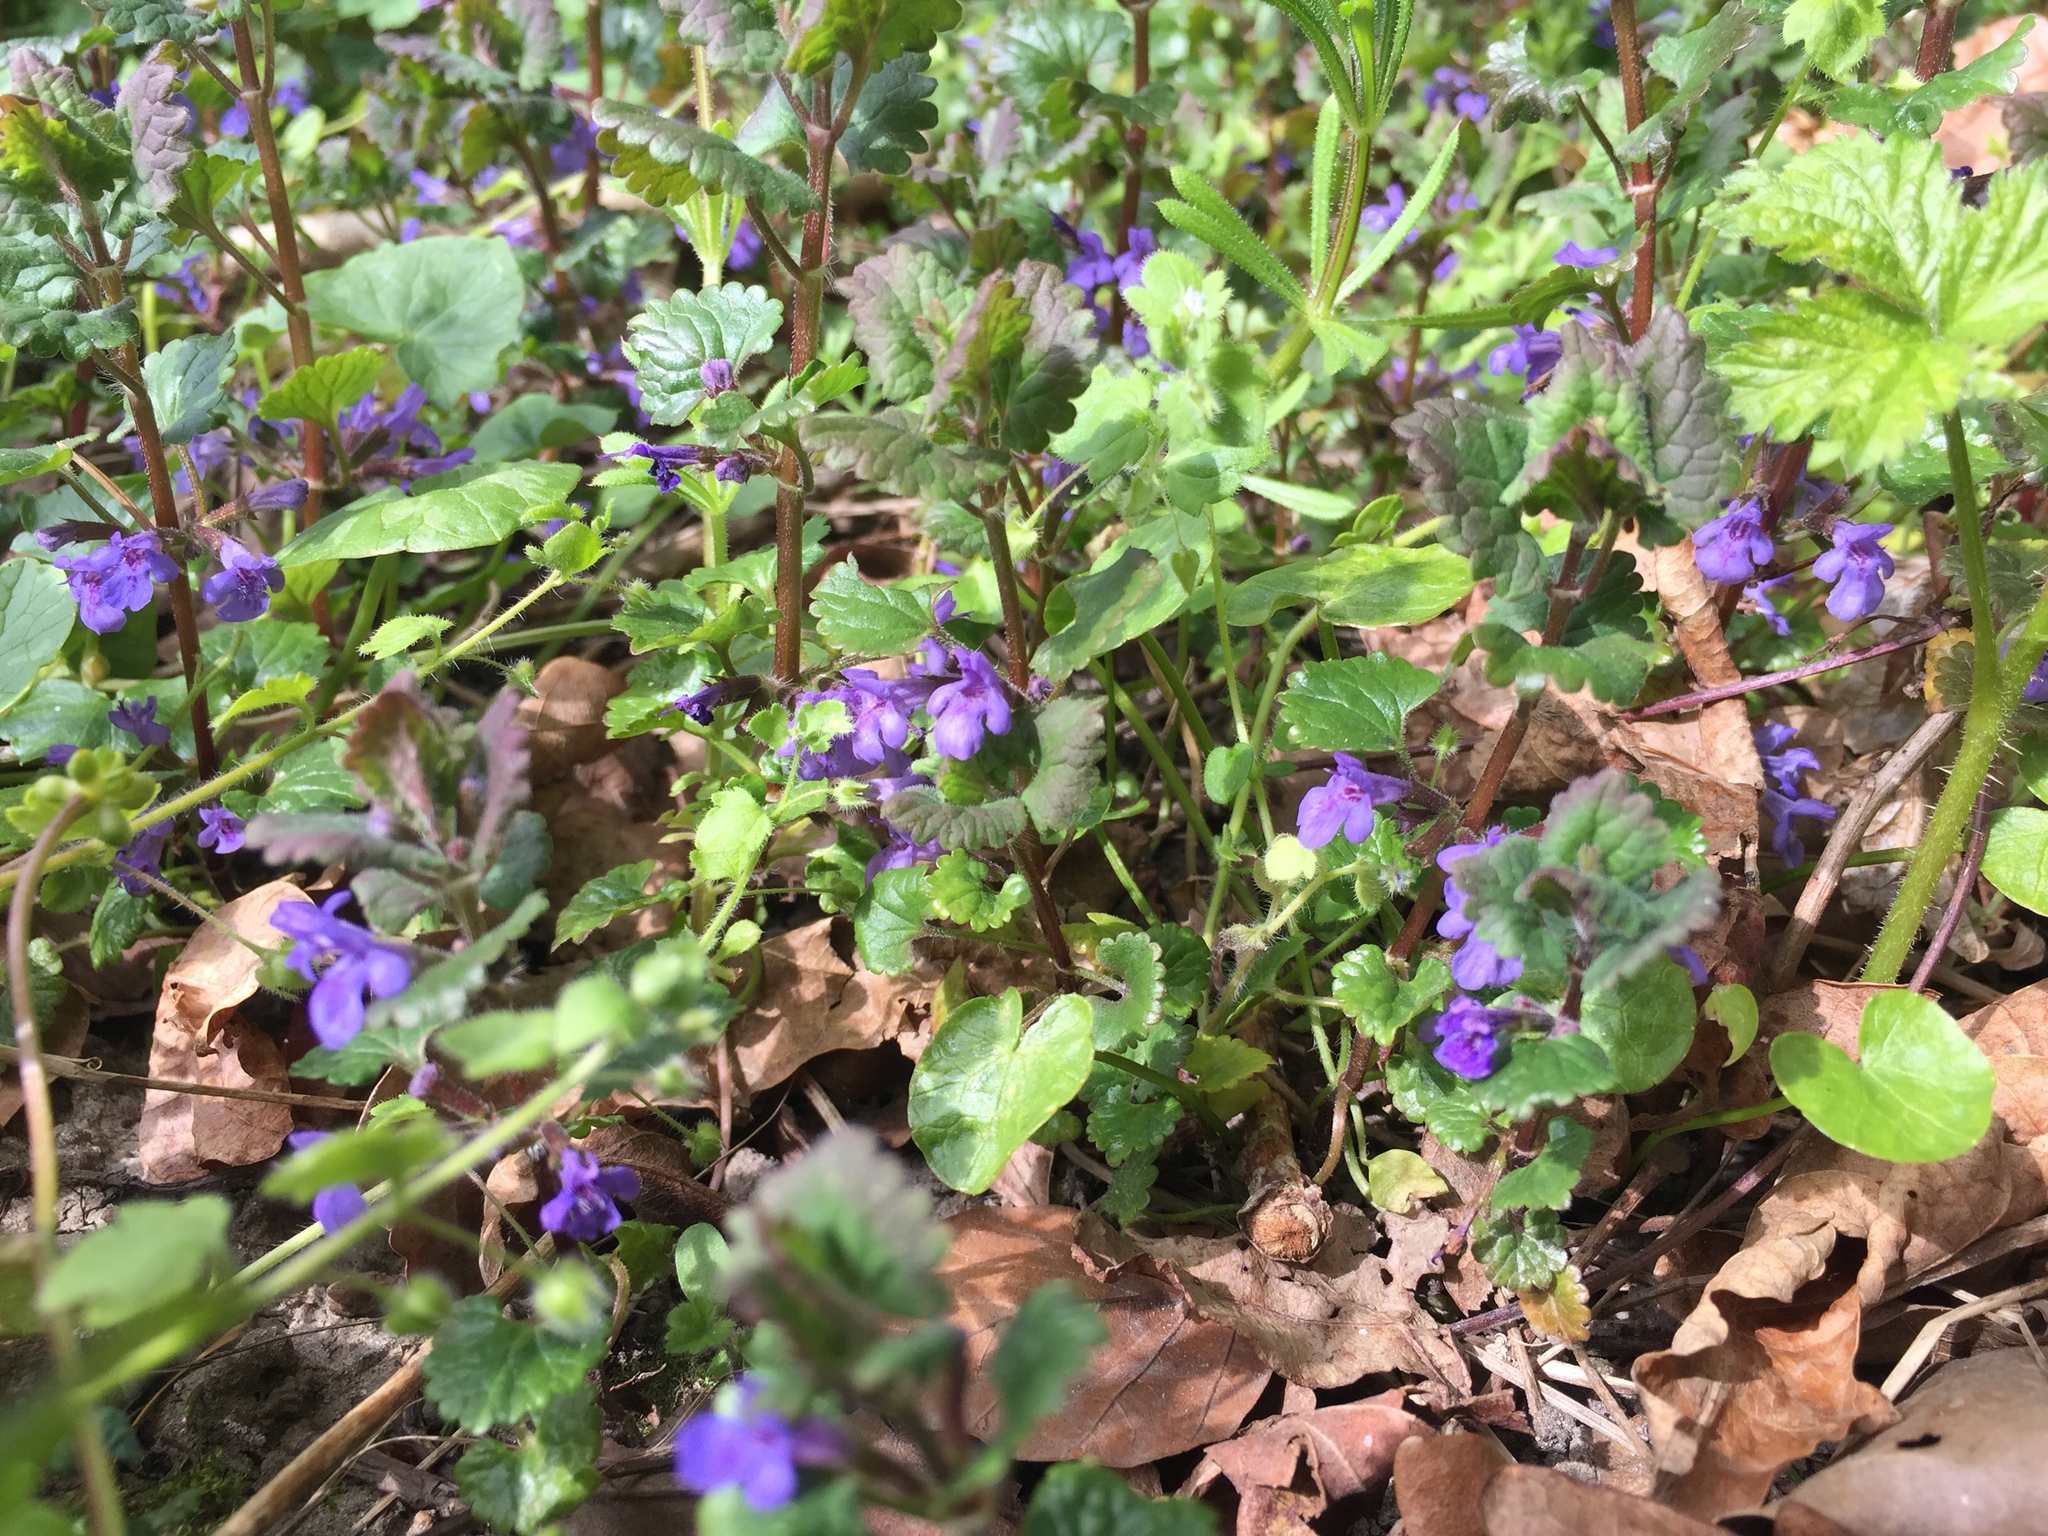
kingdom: Plantae
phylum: Tracheophyta
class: Magnoliopsida
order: Lamiales
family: Lamiaceae
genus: Glechoma
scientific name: Glechoma hederacea
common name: Ground ivy
